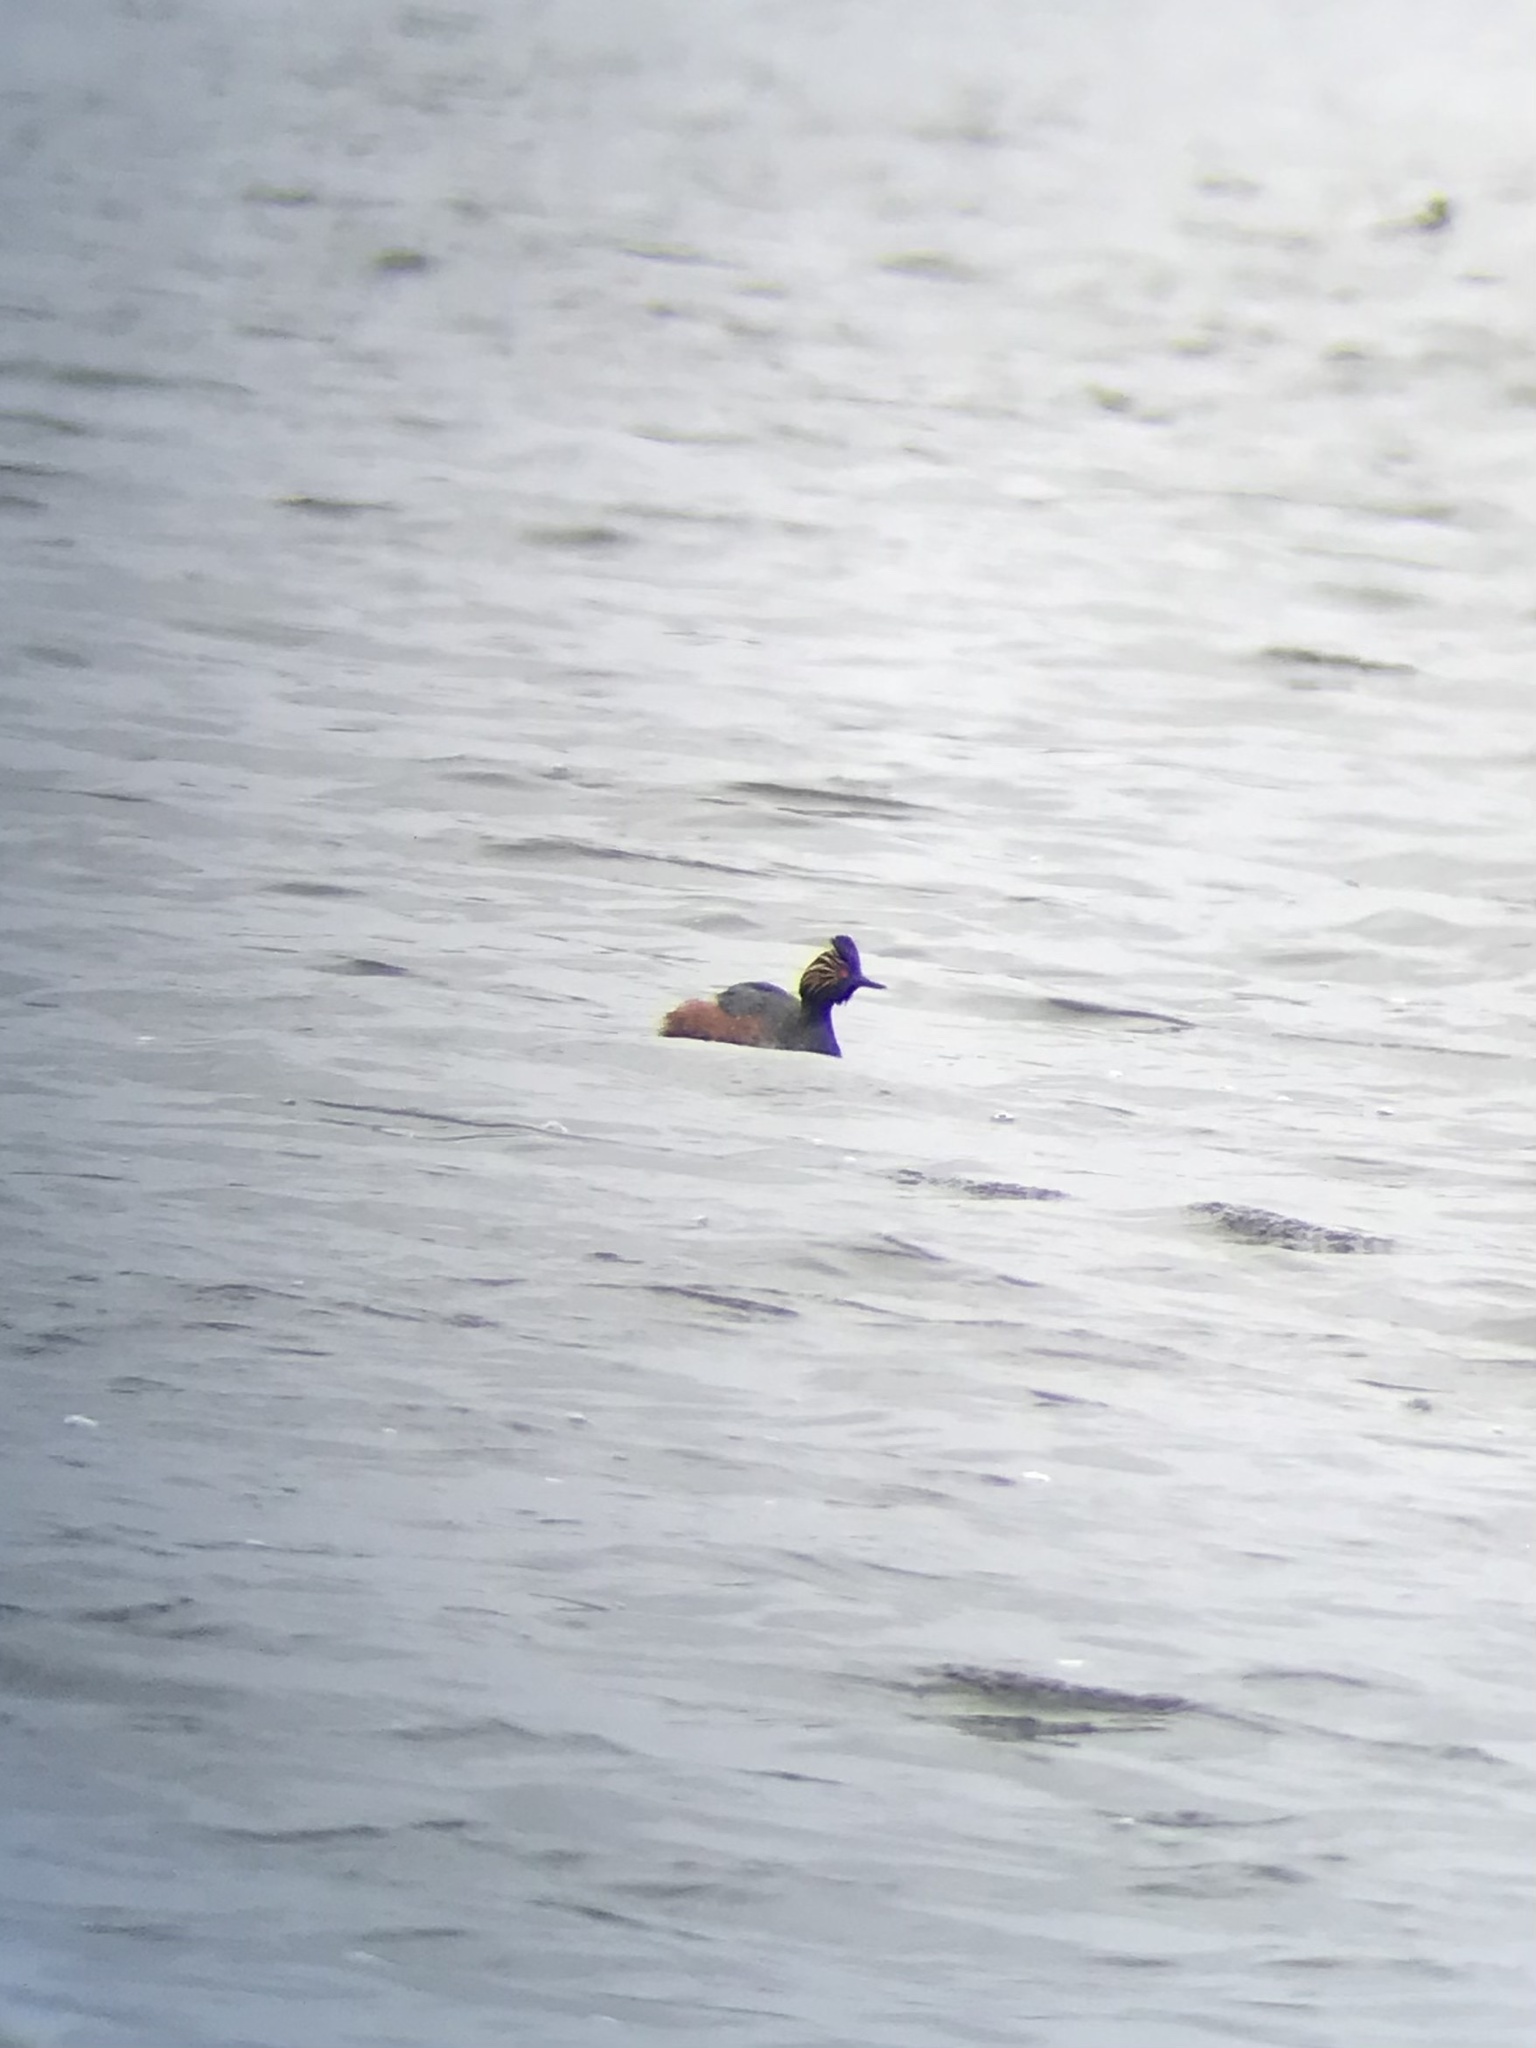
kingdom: Animalia
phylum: Chordata
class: Aves
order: Podicipediformes
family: Podicipedidae
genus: Podiceps
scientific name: Podiceps nigricollis
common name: Black-necked grebe
